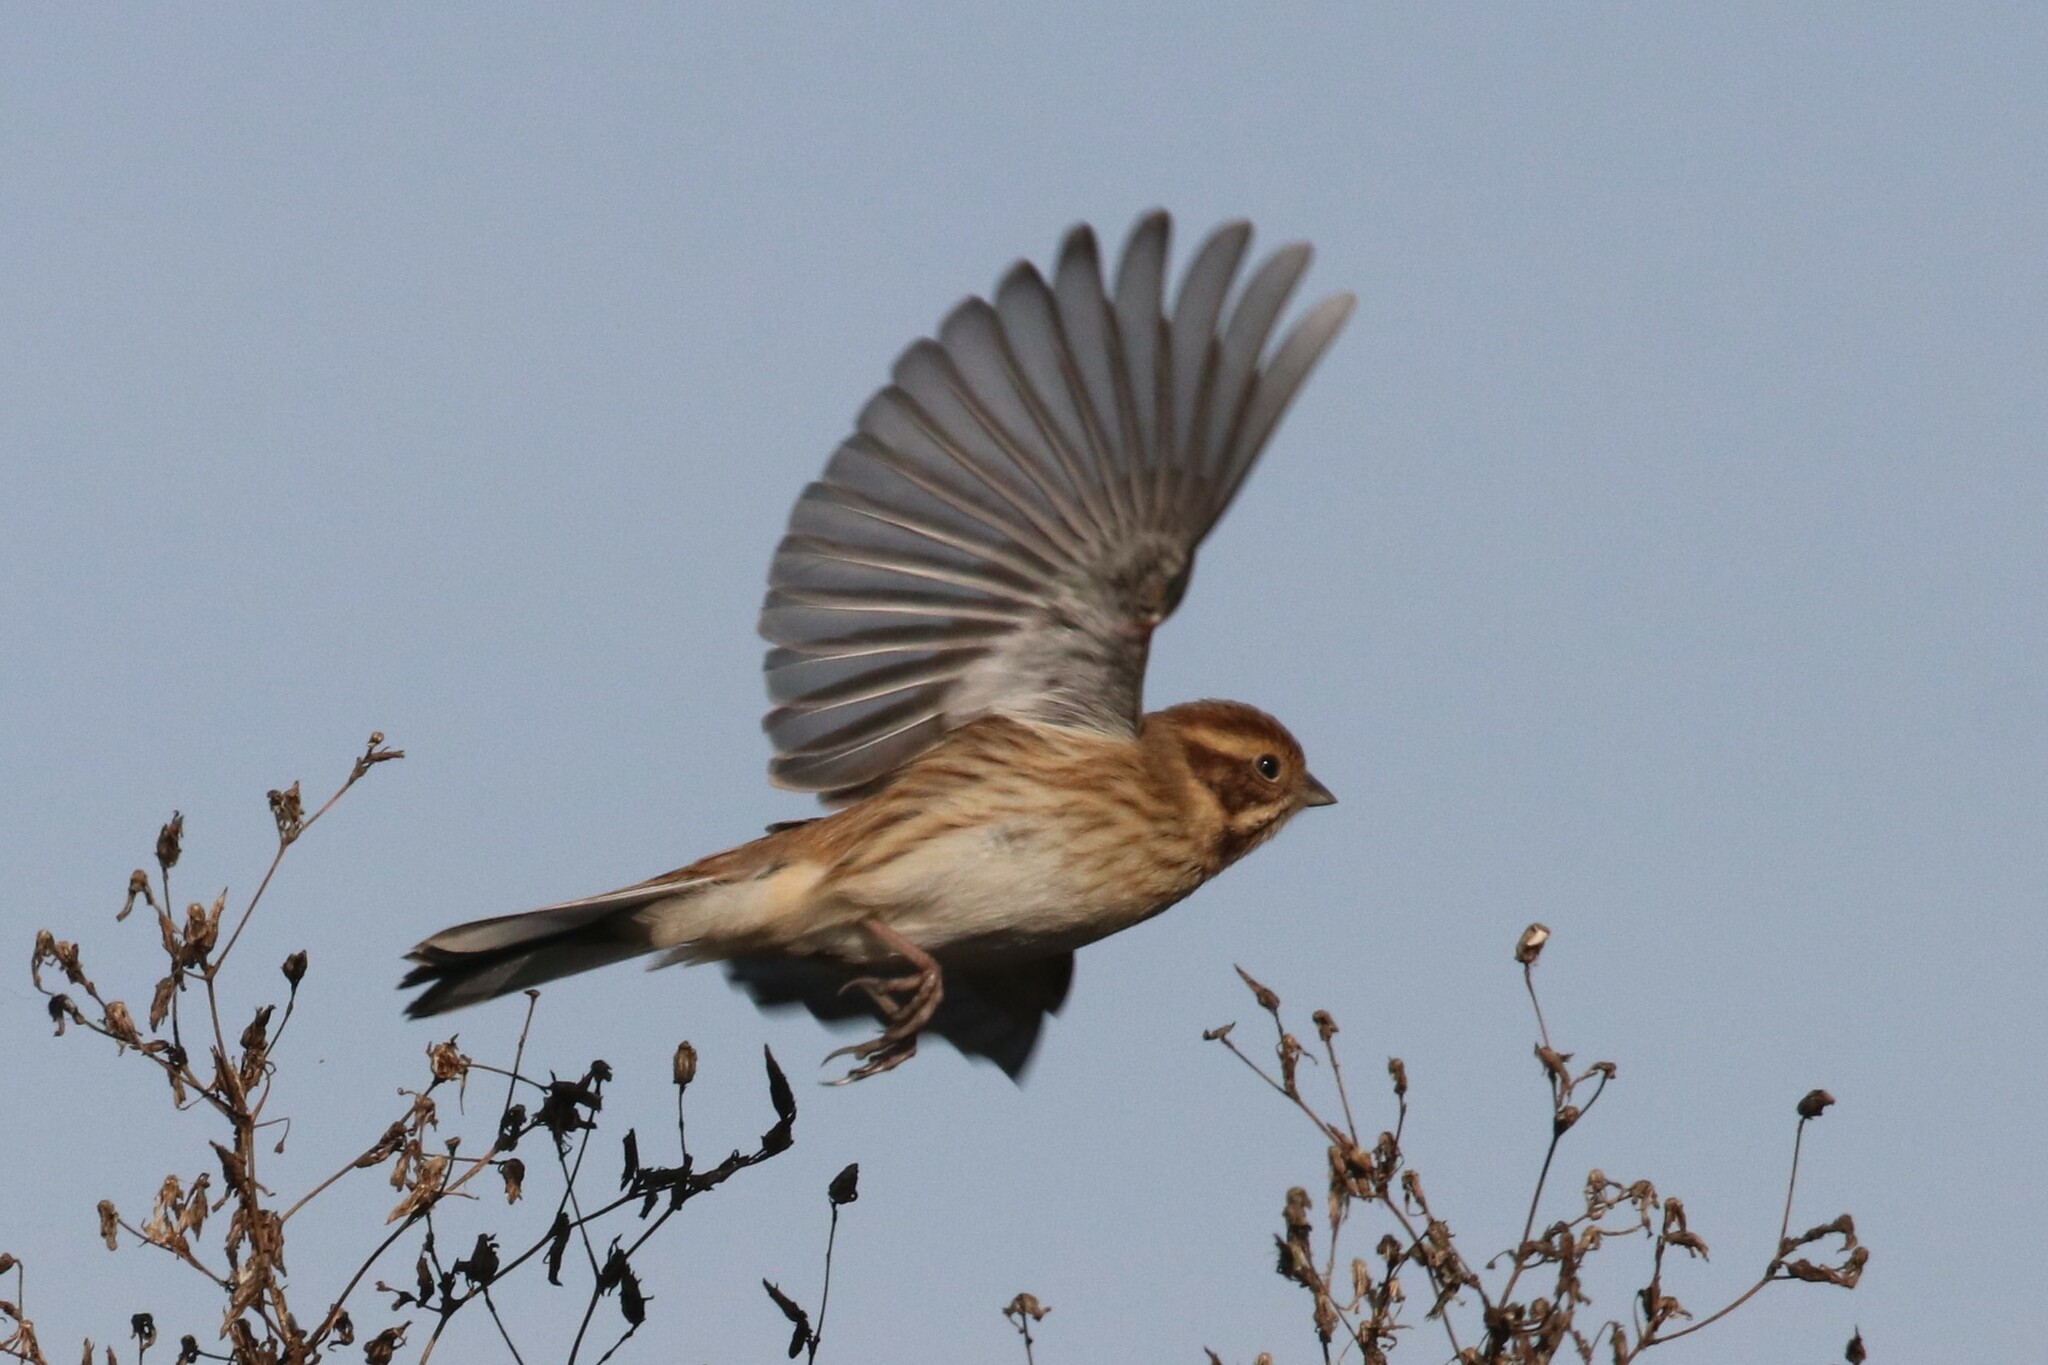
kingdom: Animalia
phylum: Chordata
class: Aves
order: Passeriformes
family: Emberizidae
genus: Emberiza
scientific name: Emberiza schoeniclus
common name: Reed bunting
